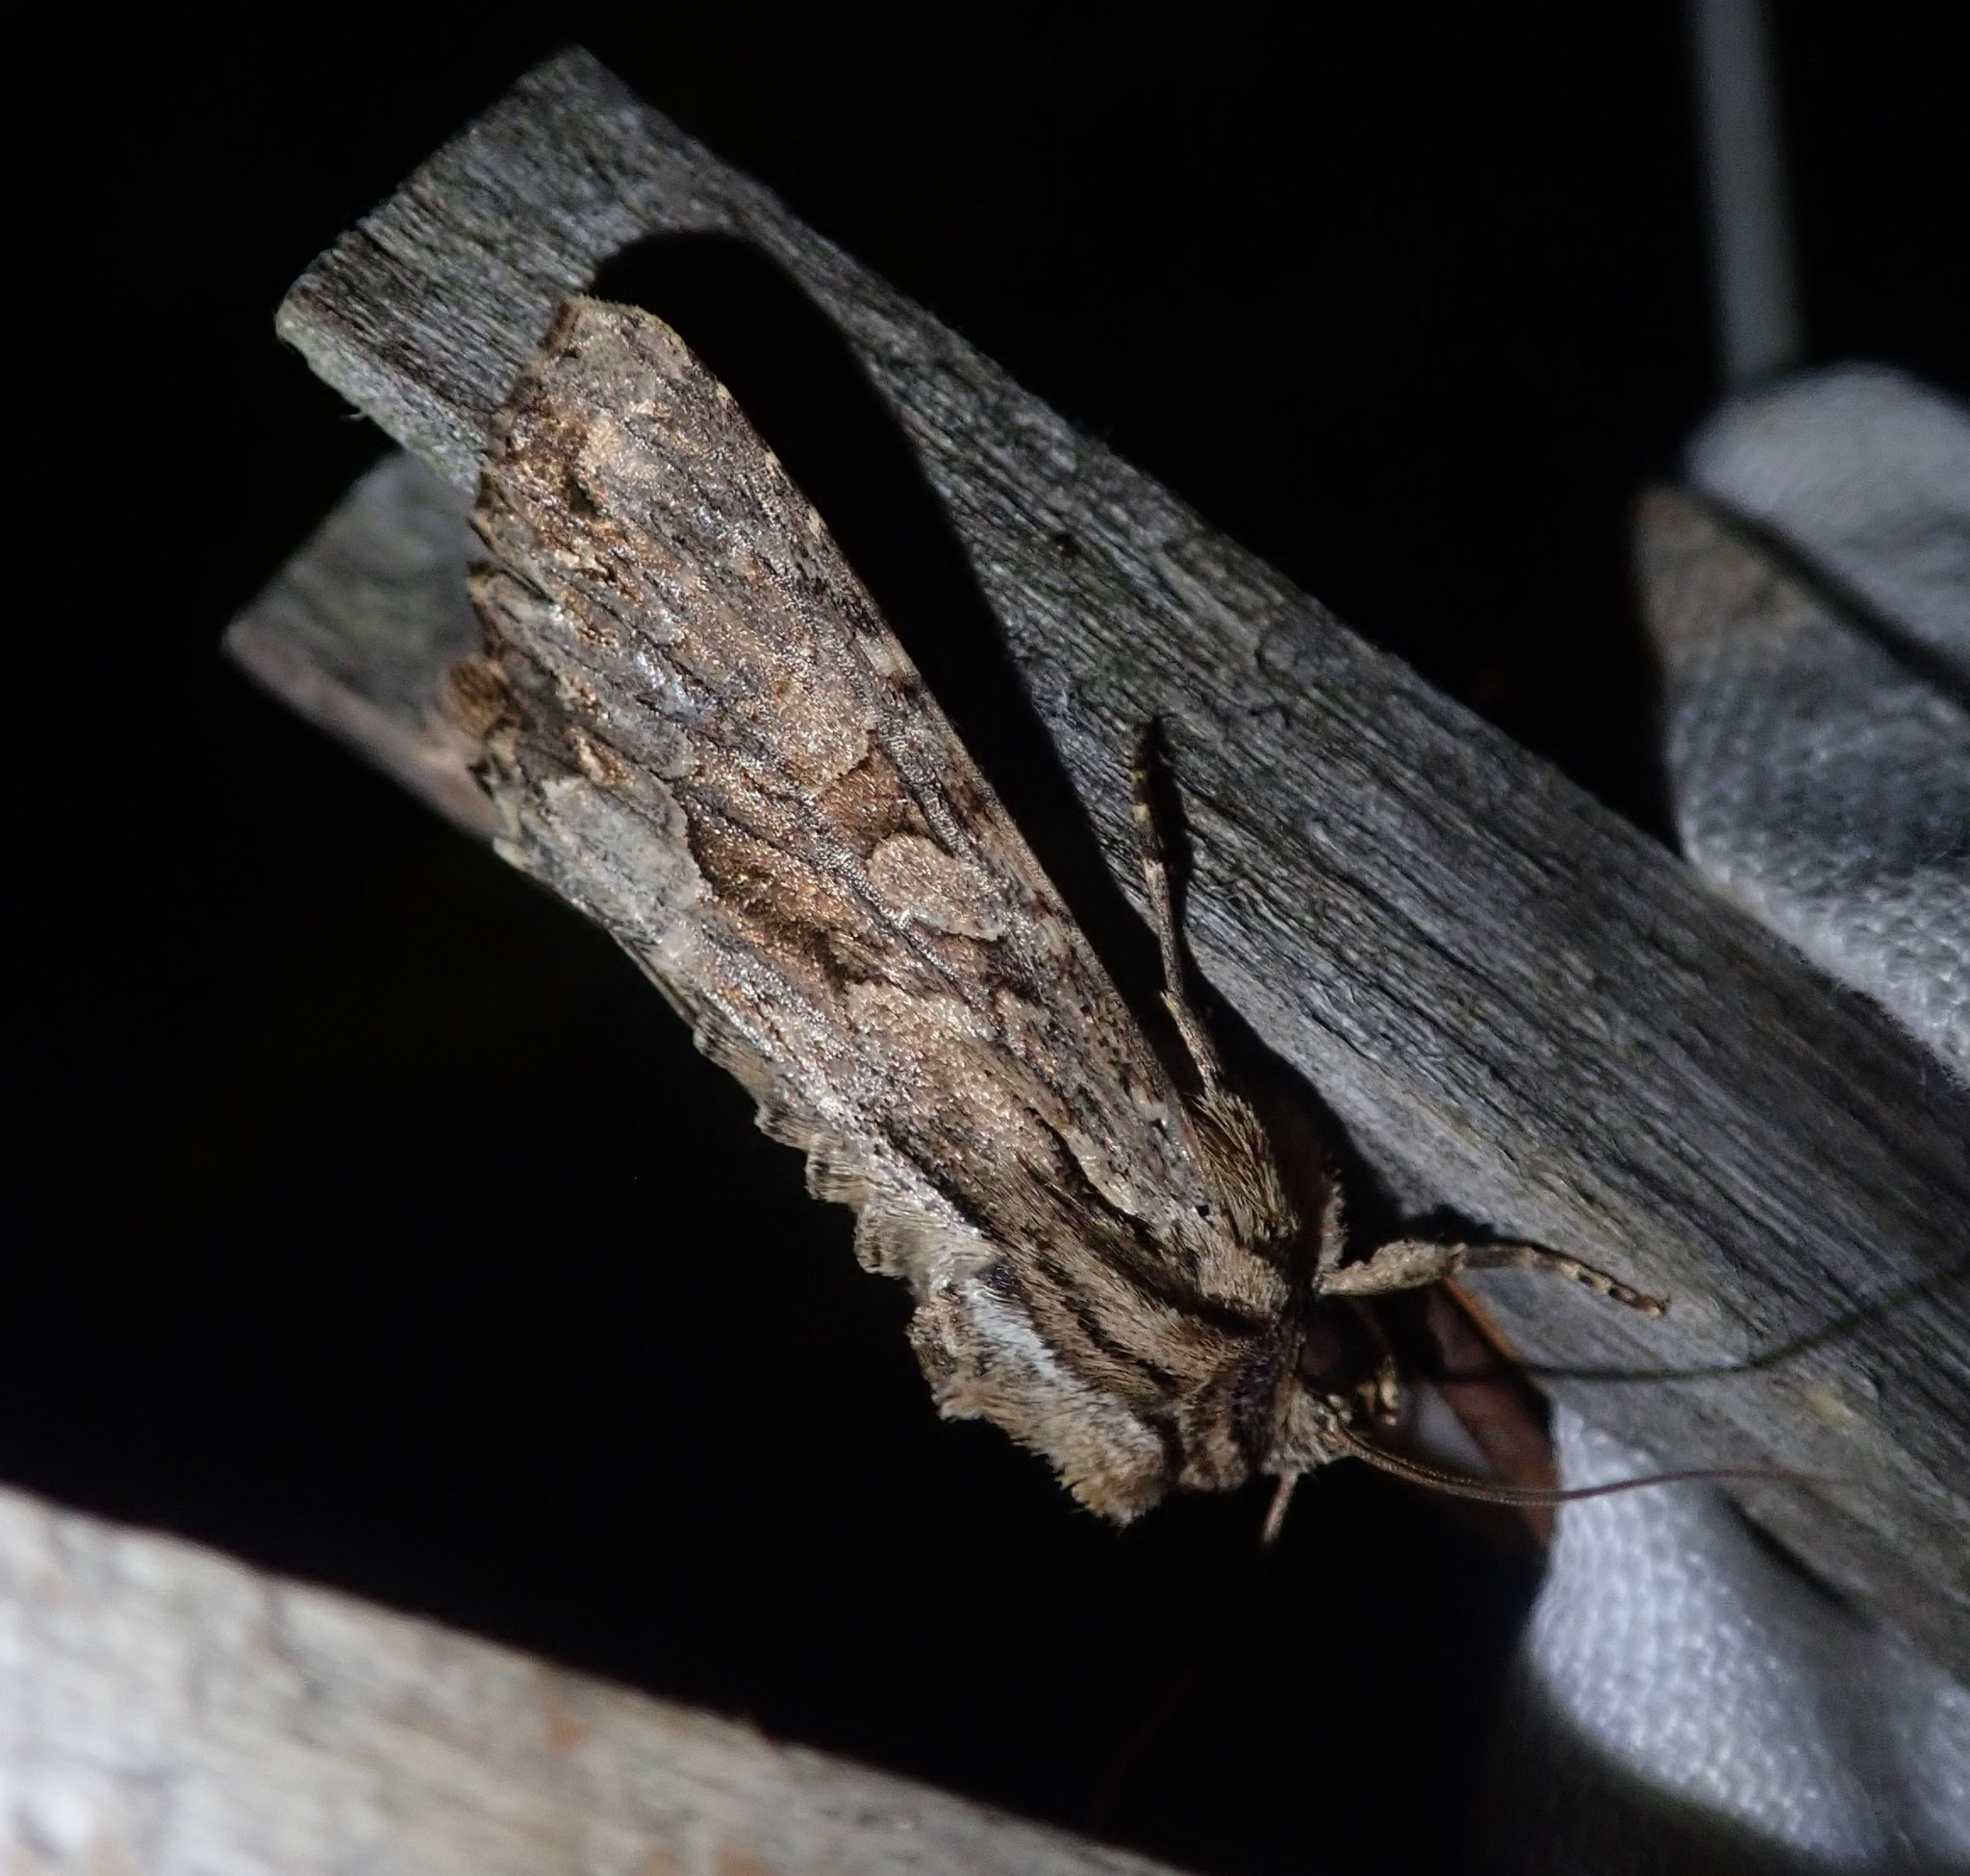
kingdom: Animalia
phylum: Arthropoda
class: Insecta
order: Lepidoptera
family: Noctuidae
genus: Apamea
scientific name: Apamea monoglypha
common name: Dark arches
